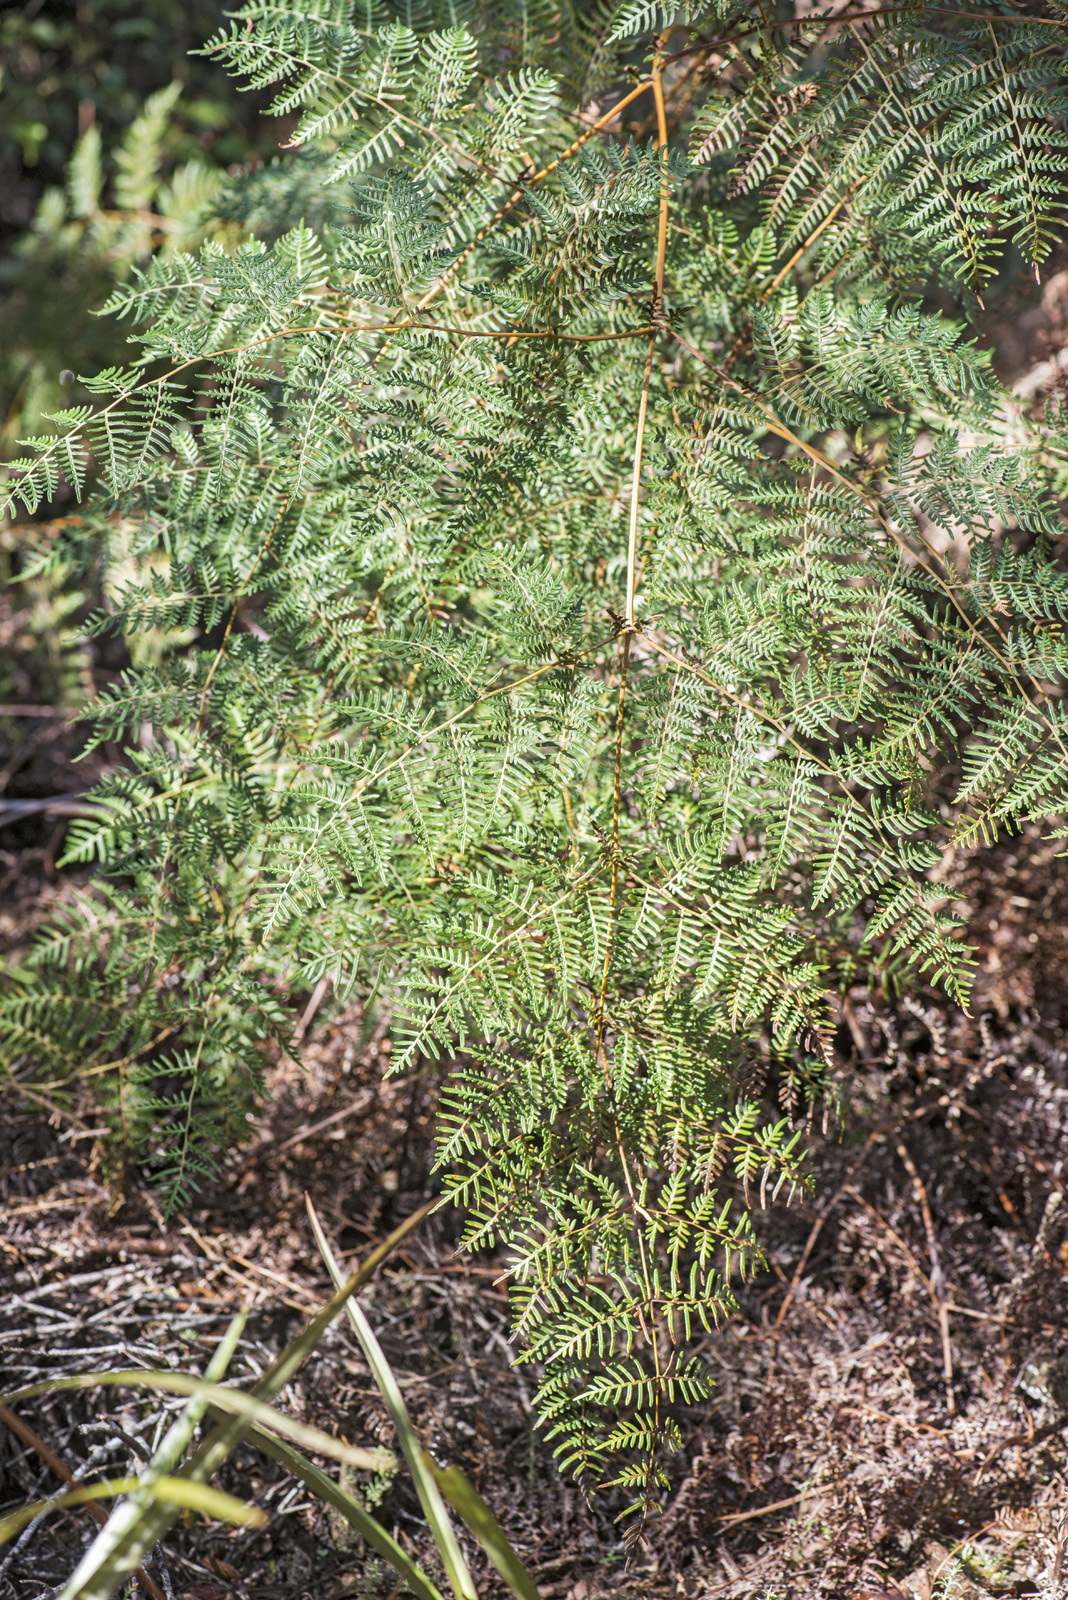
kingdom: Plantae
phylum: Tracheophyta
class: Polypodiopsida
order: Polypodiales
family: Dennstaedtiaceae
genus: Pteridium
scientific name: Pteridium esculentum
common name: Bracken fern
